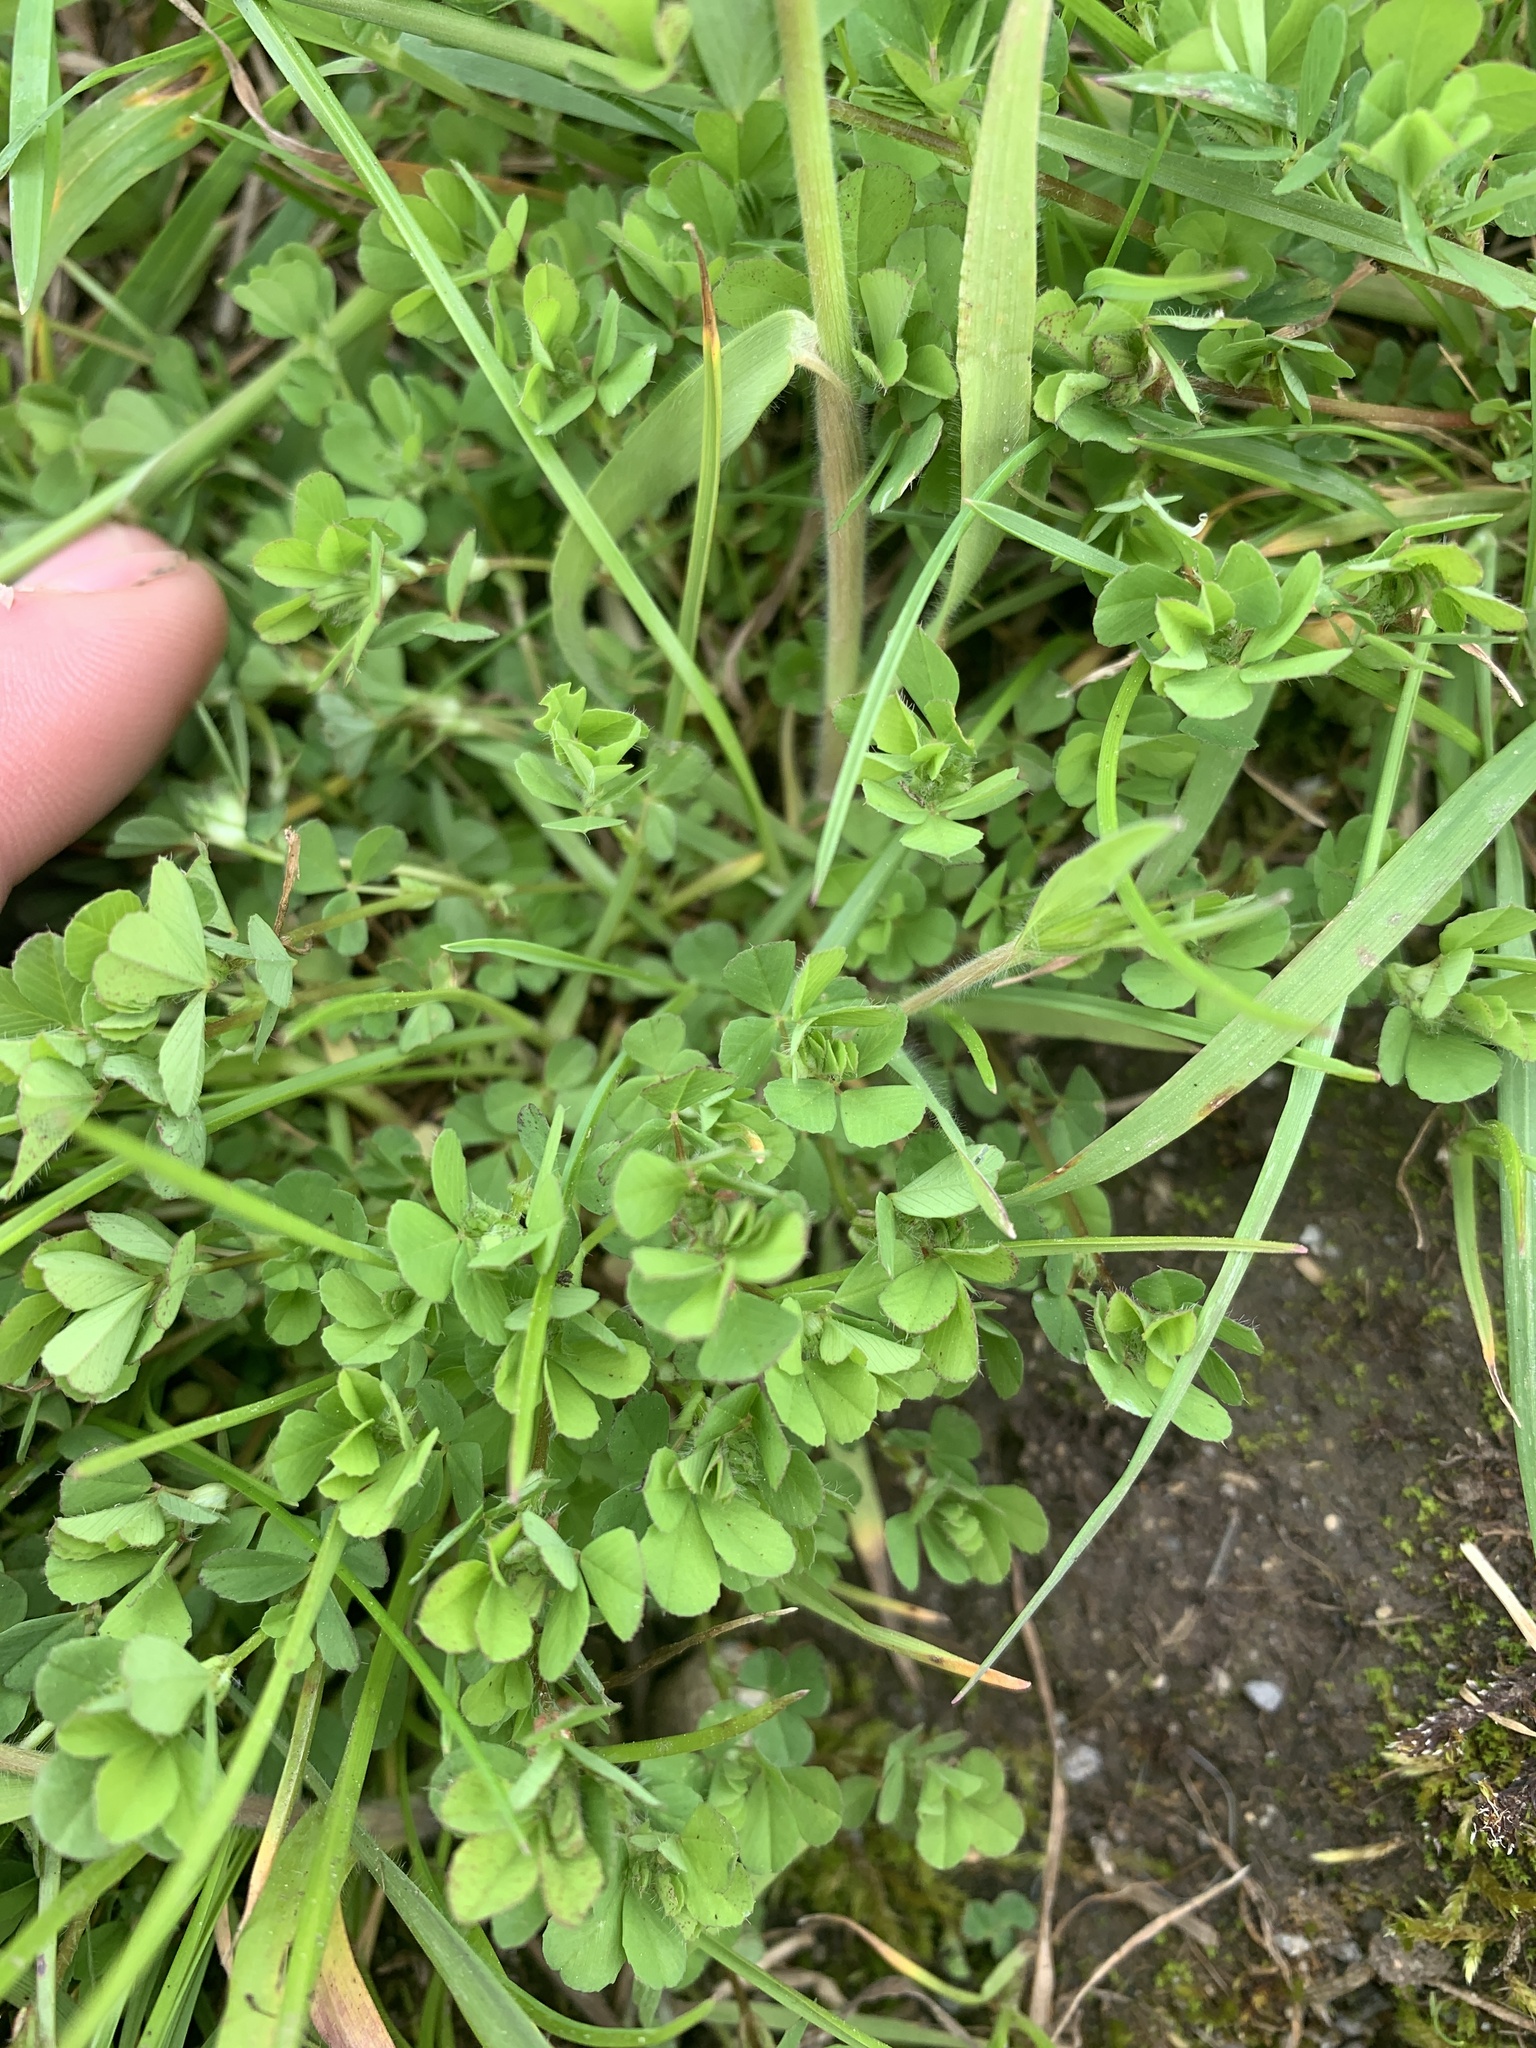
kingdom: Plantae
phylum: Tracheophyta
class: Magnoliopsida
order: Fabales
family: Fabaceae
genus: Lotus
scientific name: Lotus pedunculatus
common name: Greater birdsfoot-trefoil
